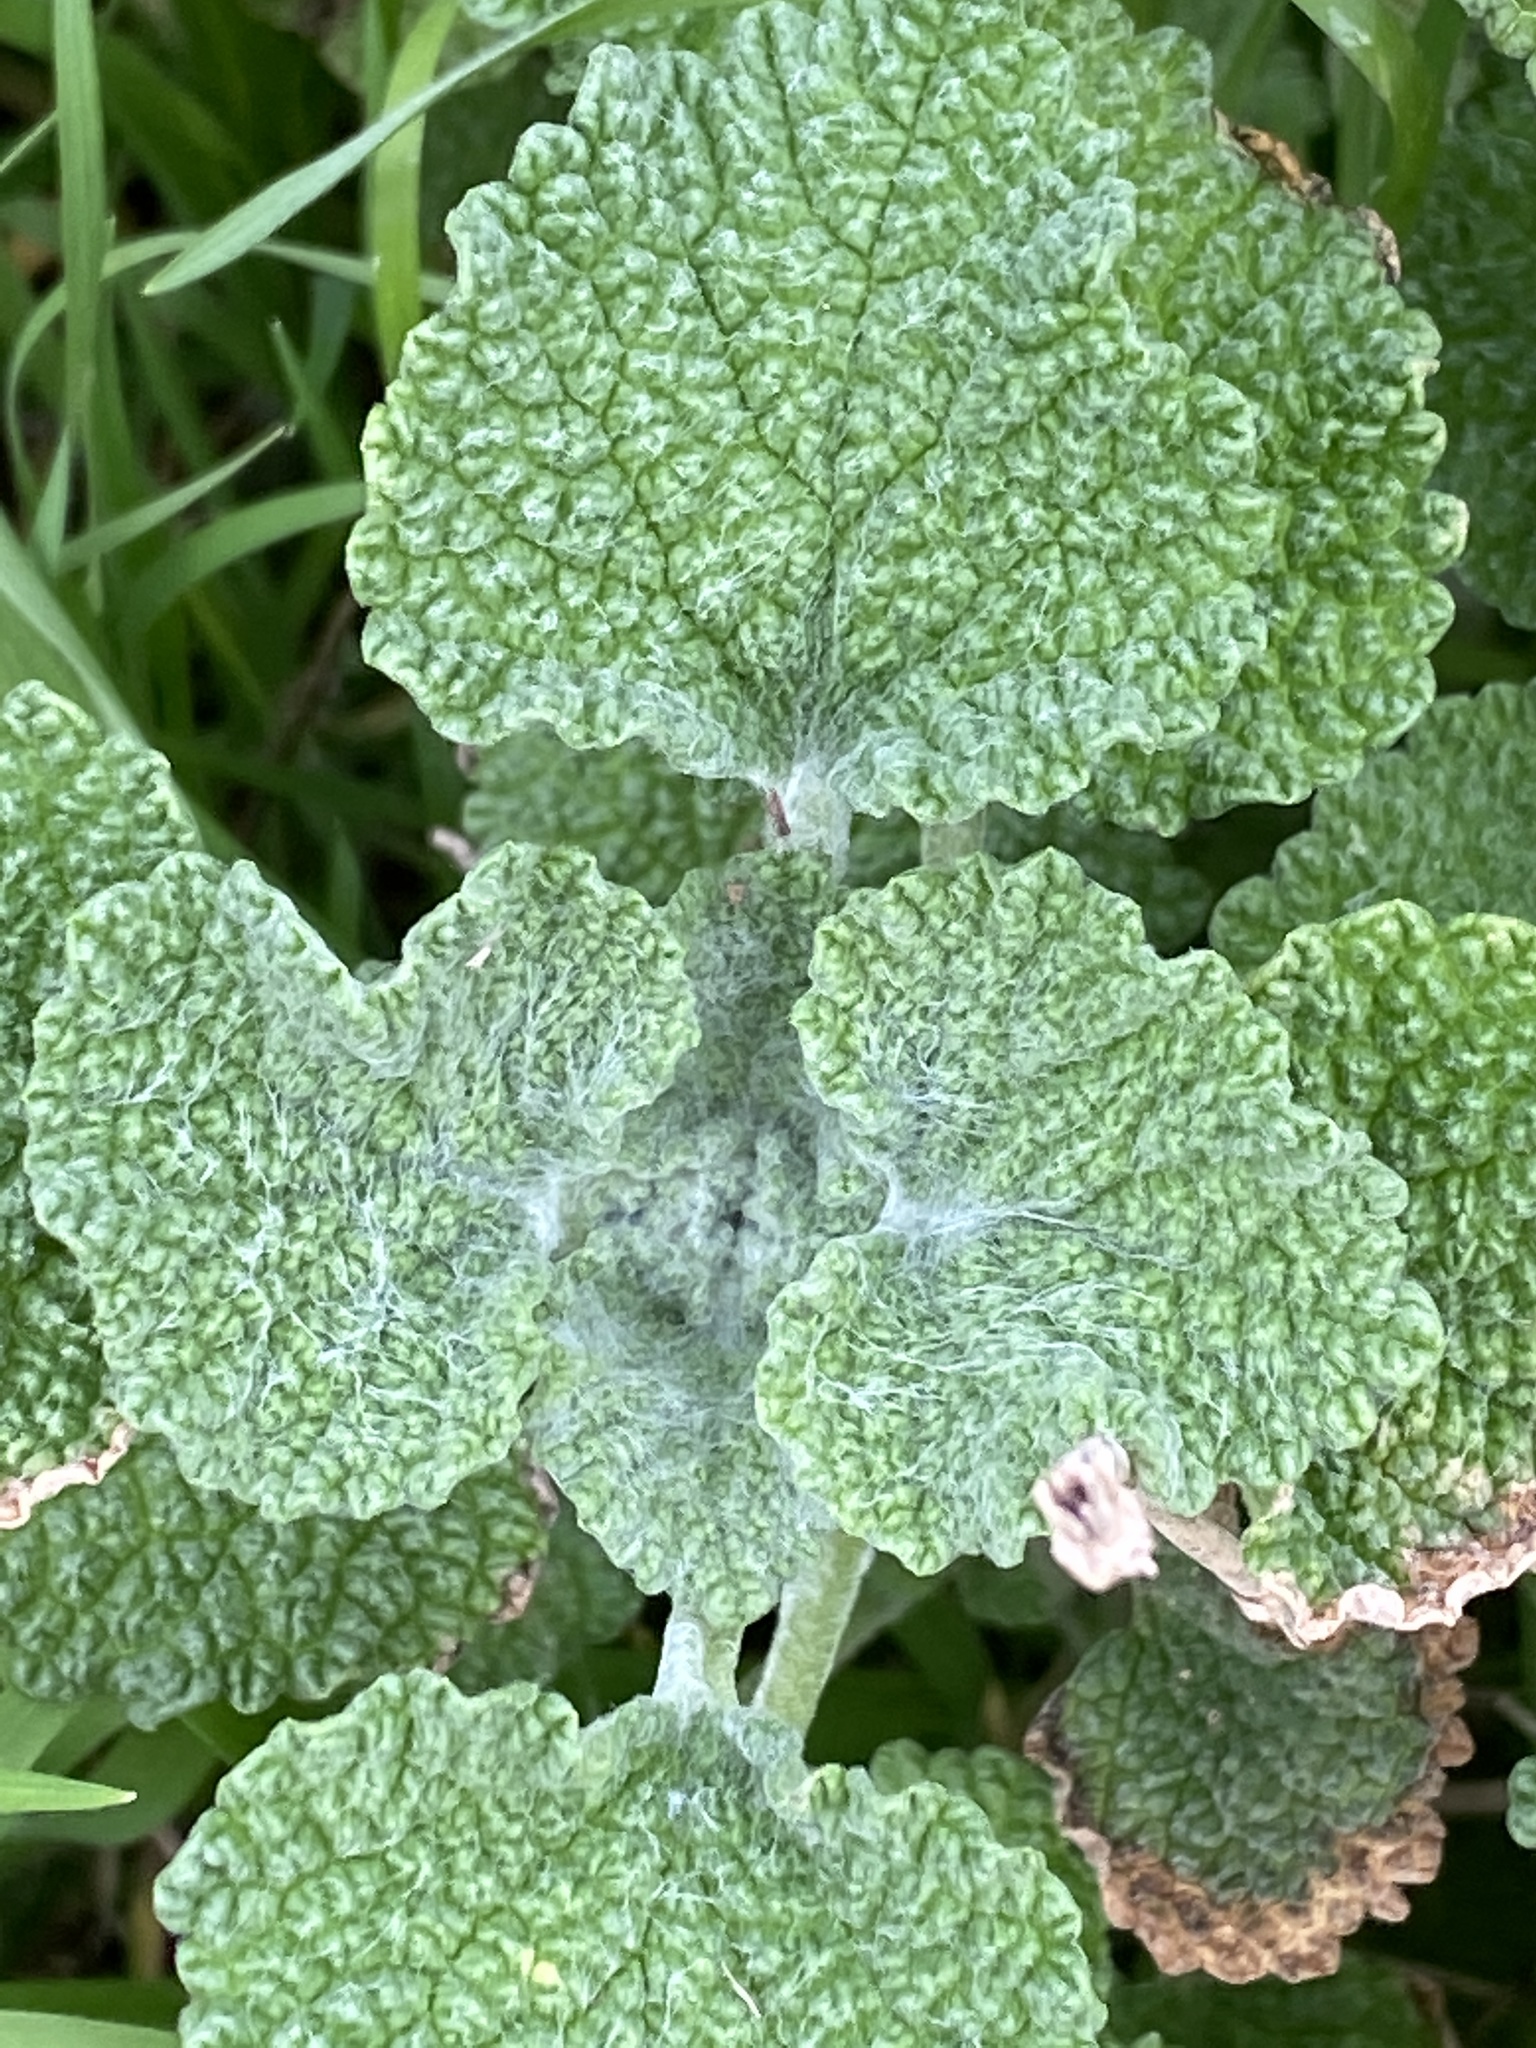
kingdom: Plantae
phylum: Tracheophyta
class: Magnoliopsida
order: Lamiales
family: Lamiaceae
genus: Marrubium
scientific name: Marrubium vulgare
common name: Horehound
